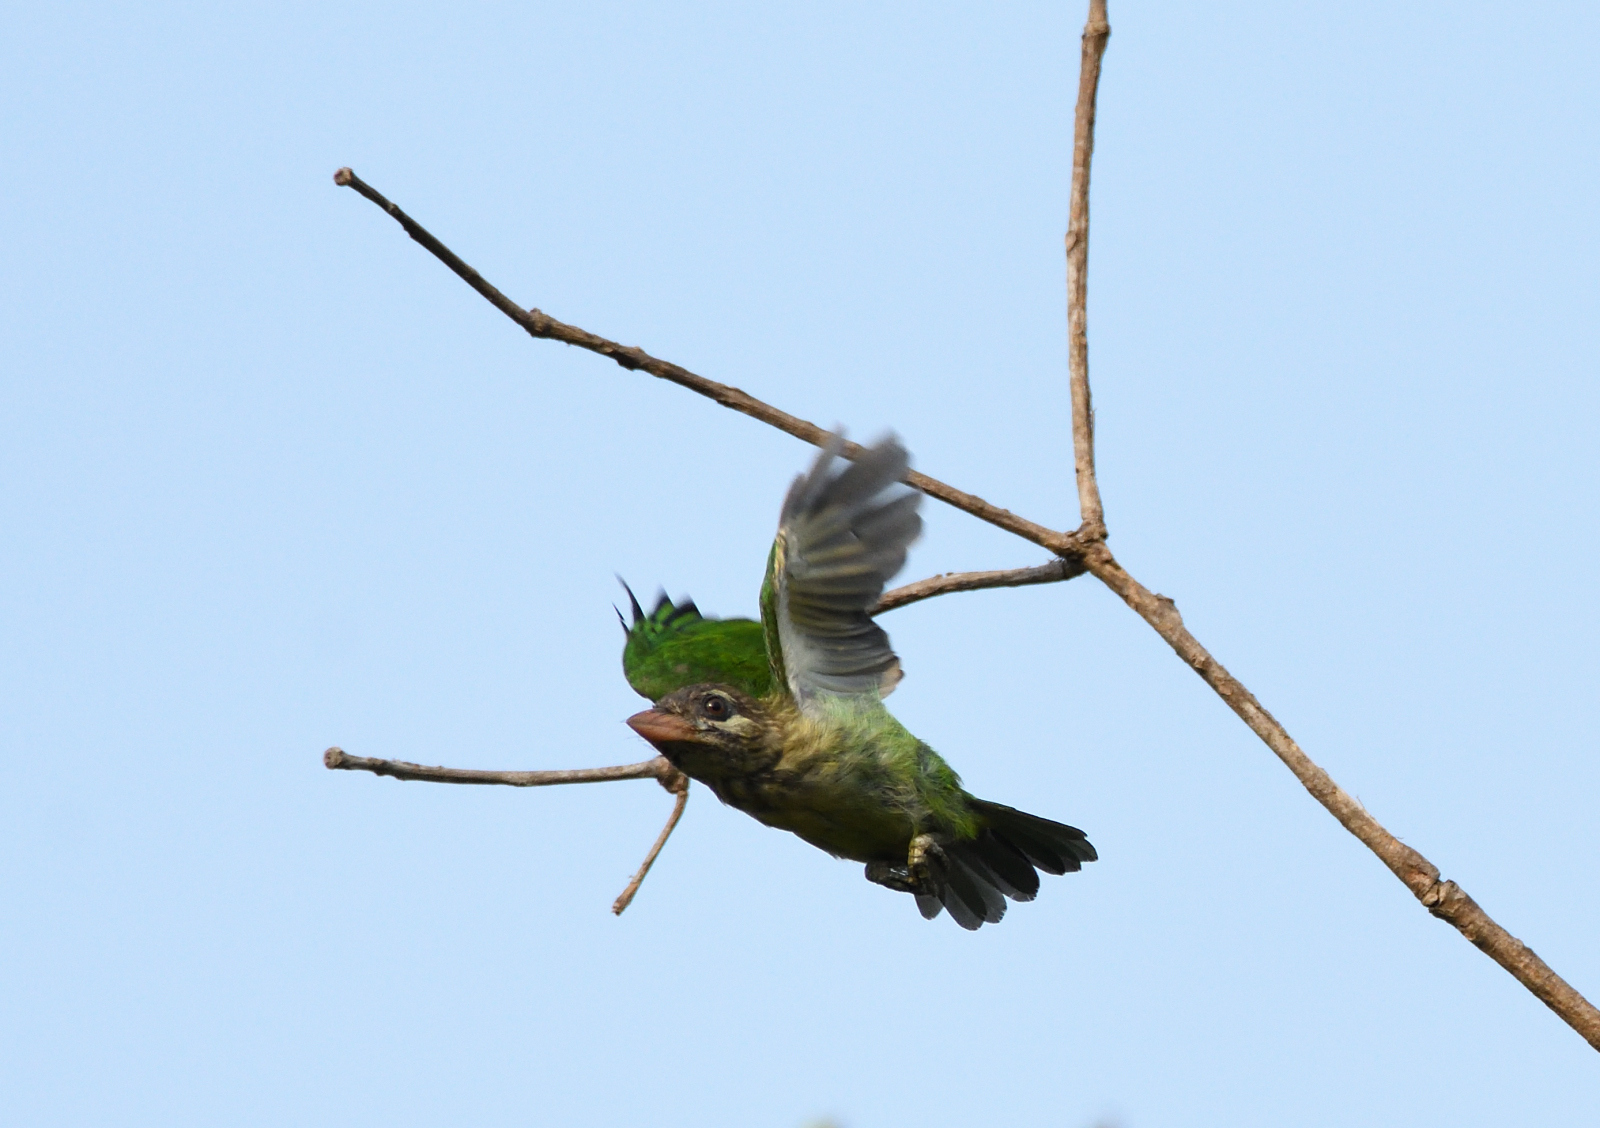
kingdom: Animalia
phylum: Chordata
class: Aves
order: Piciformes
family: Megalaimidae
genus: Psilopogon
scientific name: Psilopogon viridis
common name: White-cheeked barbet
